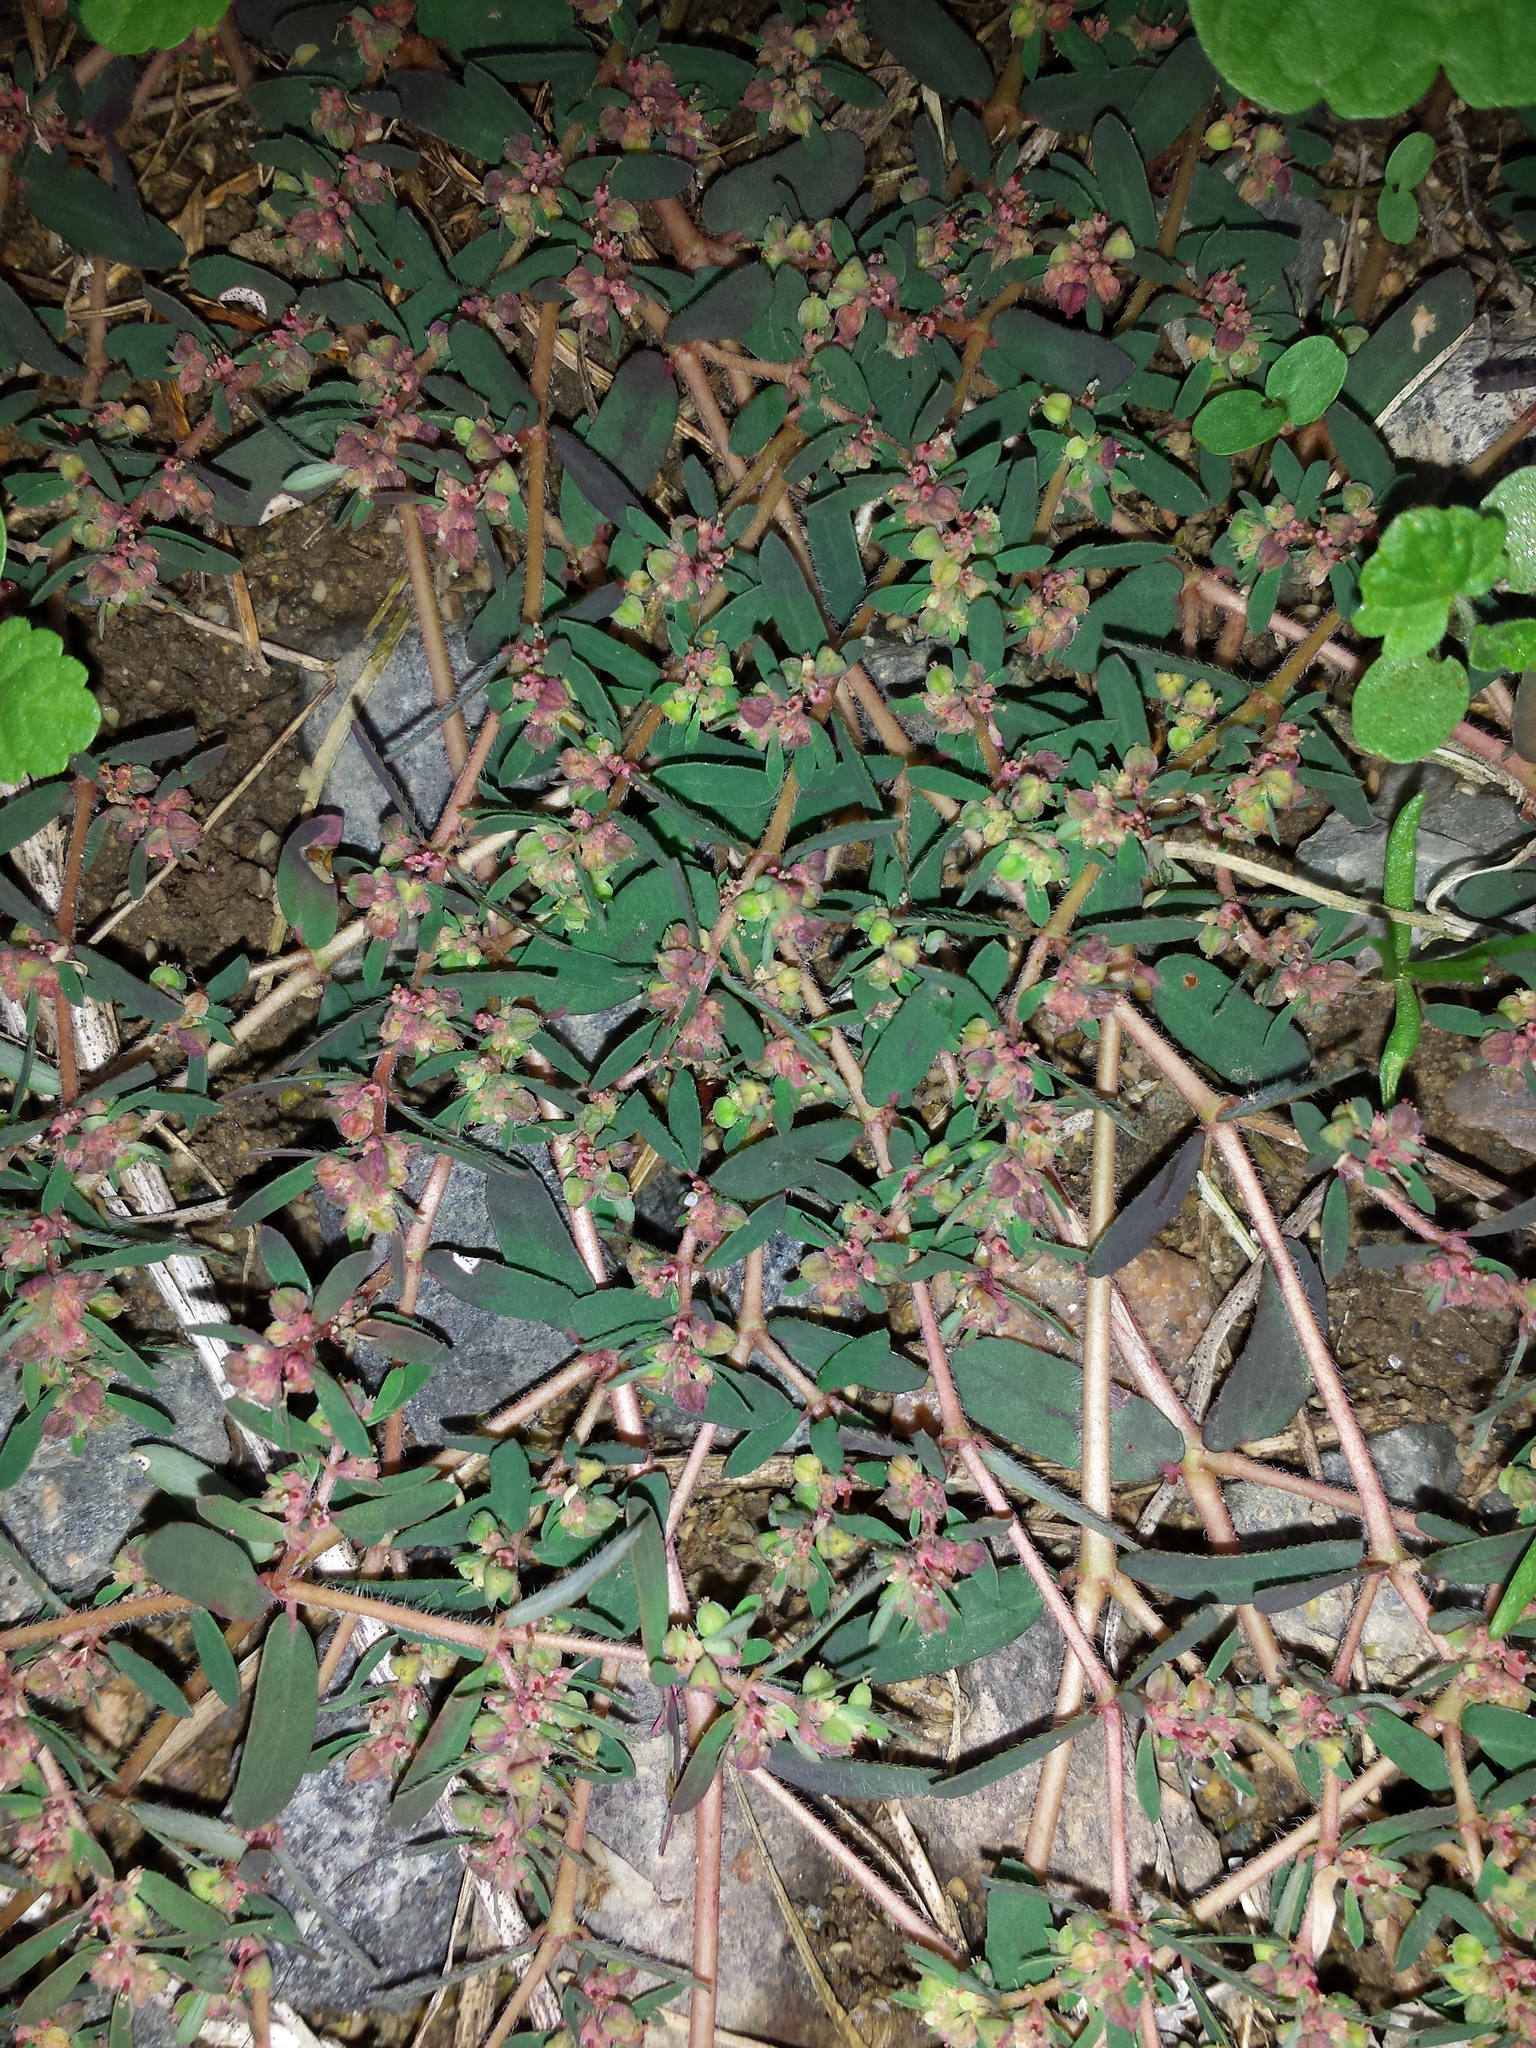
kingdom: Plantae
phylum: Tracheophyta
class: Magnoliopsida
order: Malpighiales
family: Euphorbiaceae
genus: Euphorbia
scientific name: Euphorbia maculata
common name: Spotted spurge
